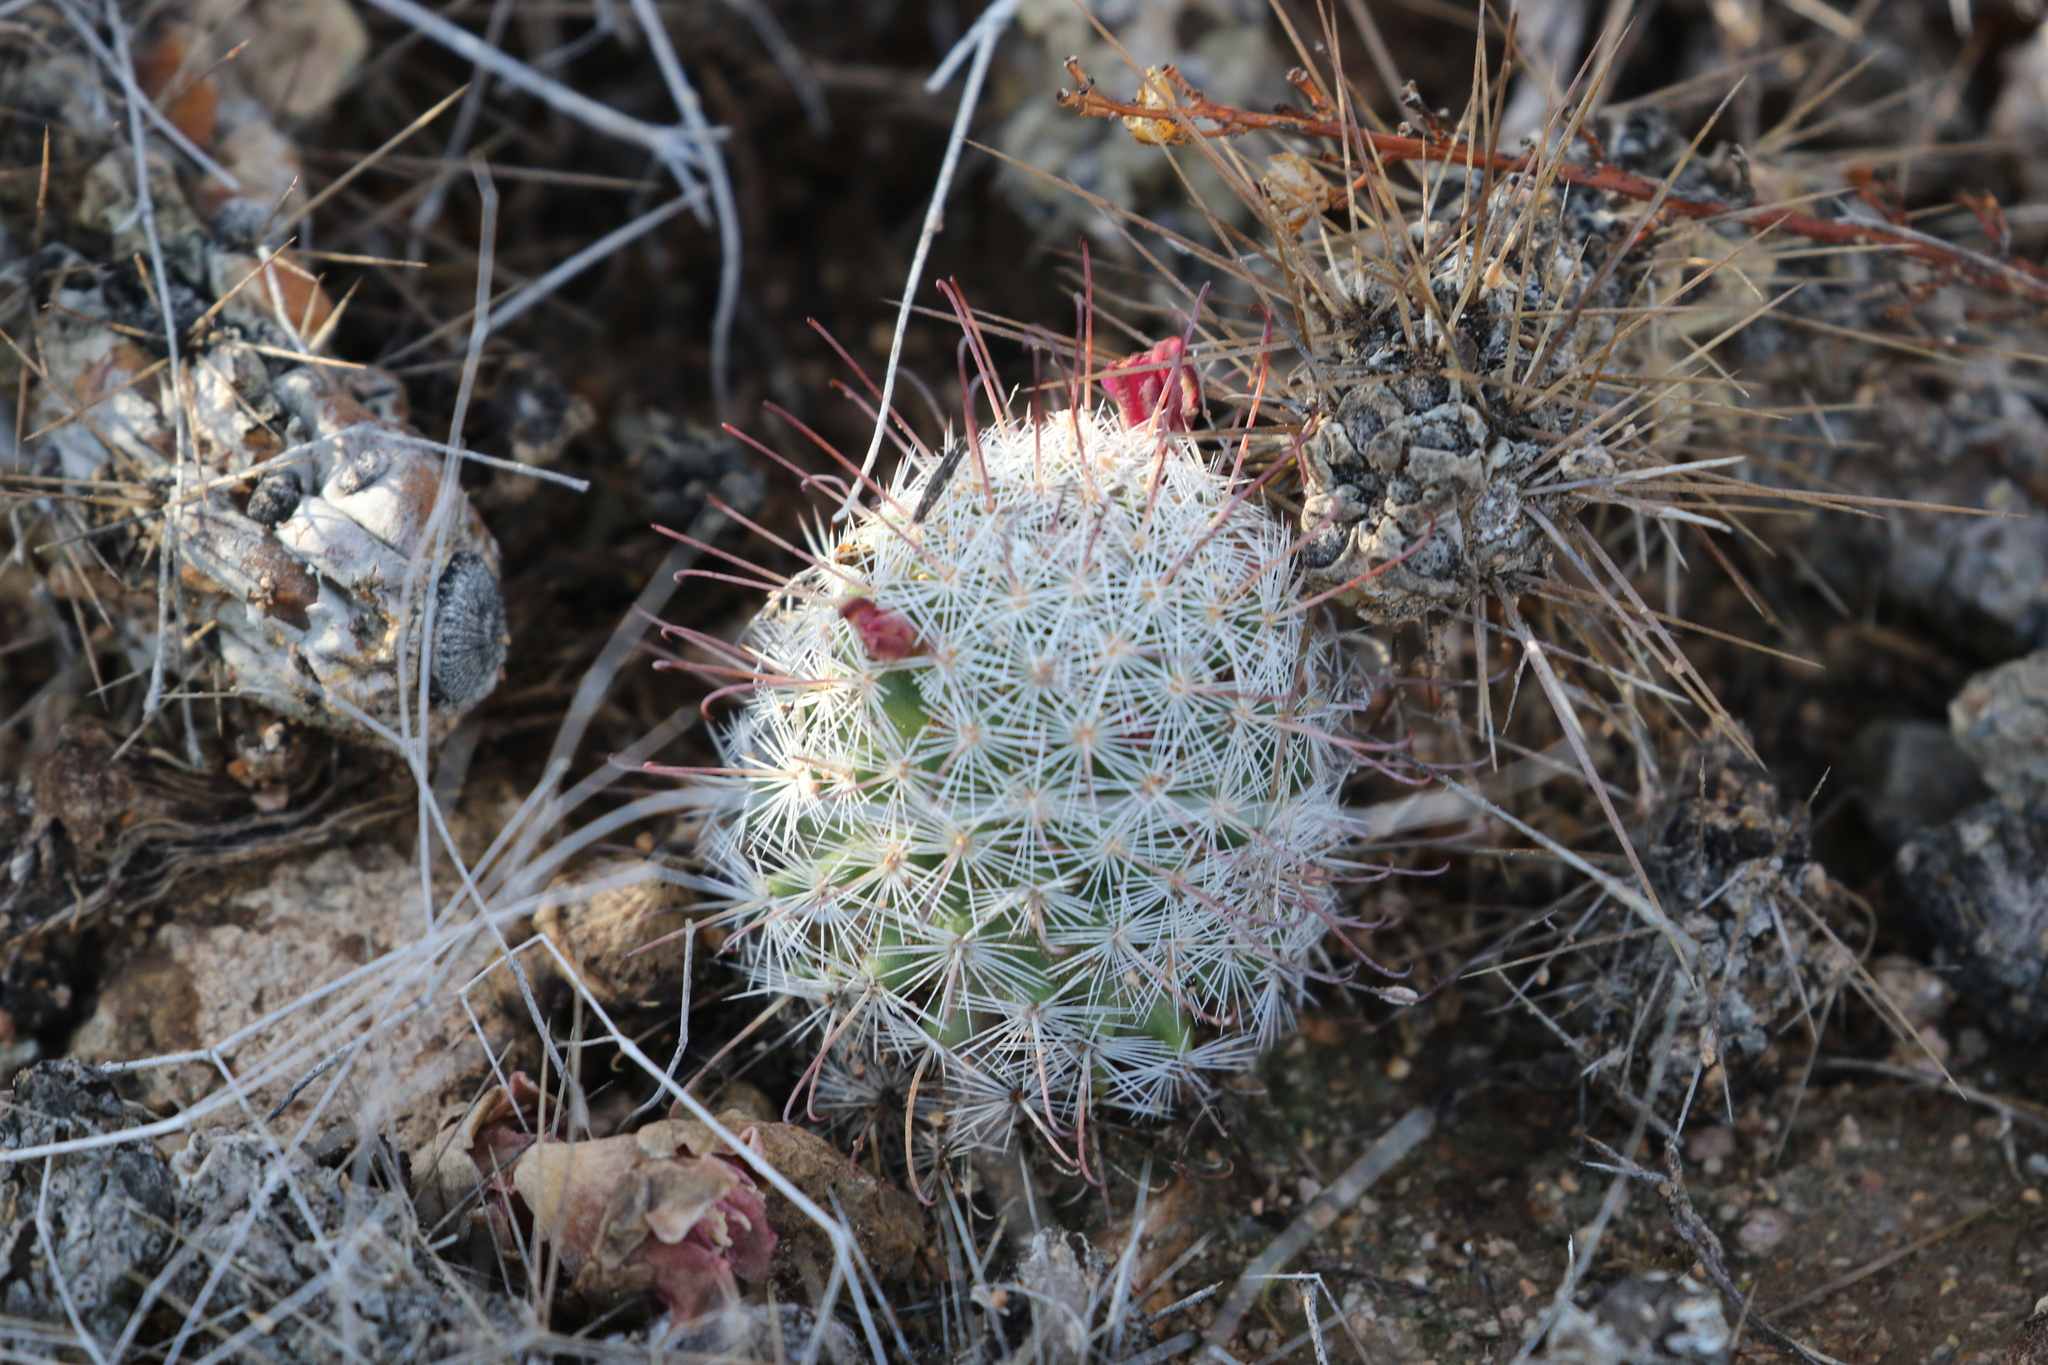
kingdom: Plantae
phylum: Tracheophyta
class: Magnoliopsida
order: Caryophyllales
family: Cactaceae
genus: Cochemiea
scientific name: Cochemiea grahamii
